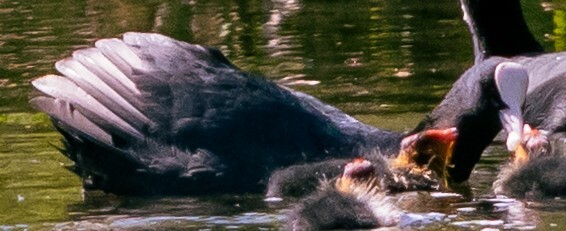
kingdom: Animalia
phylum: Chordata
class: Aves
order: Gruiformes
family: Rallidae
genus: Fulica
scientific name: Fulica atra
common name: Eurasian coot
